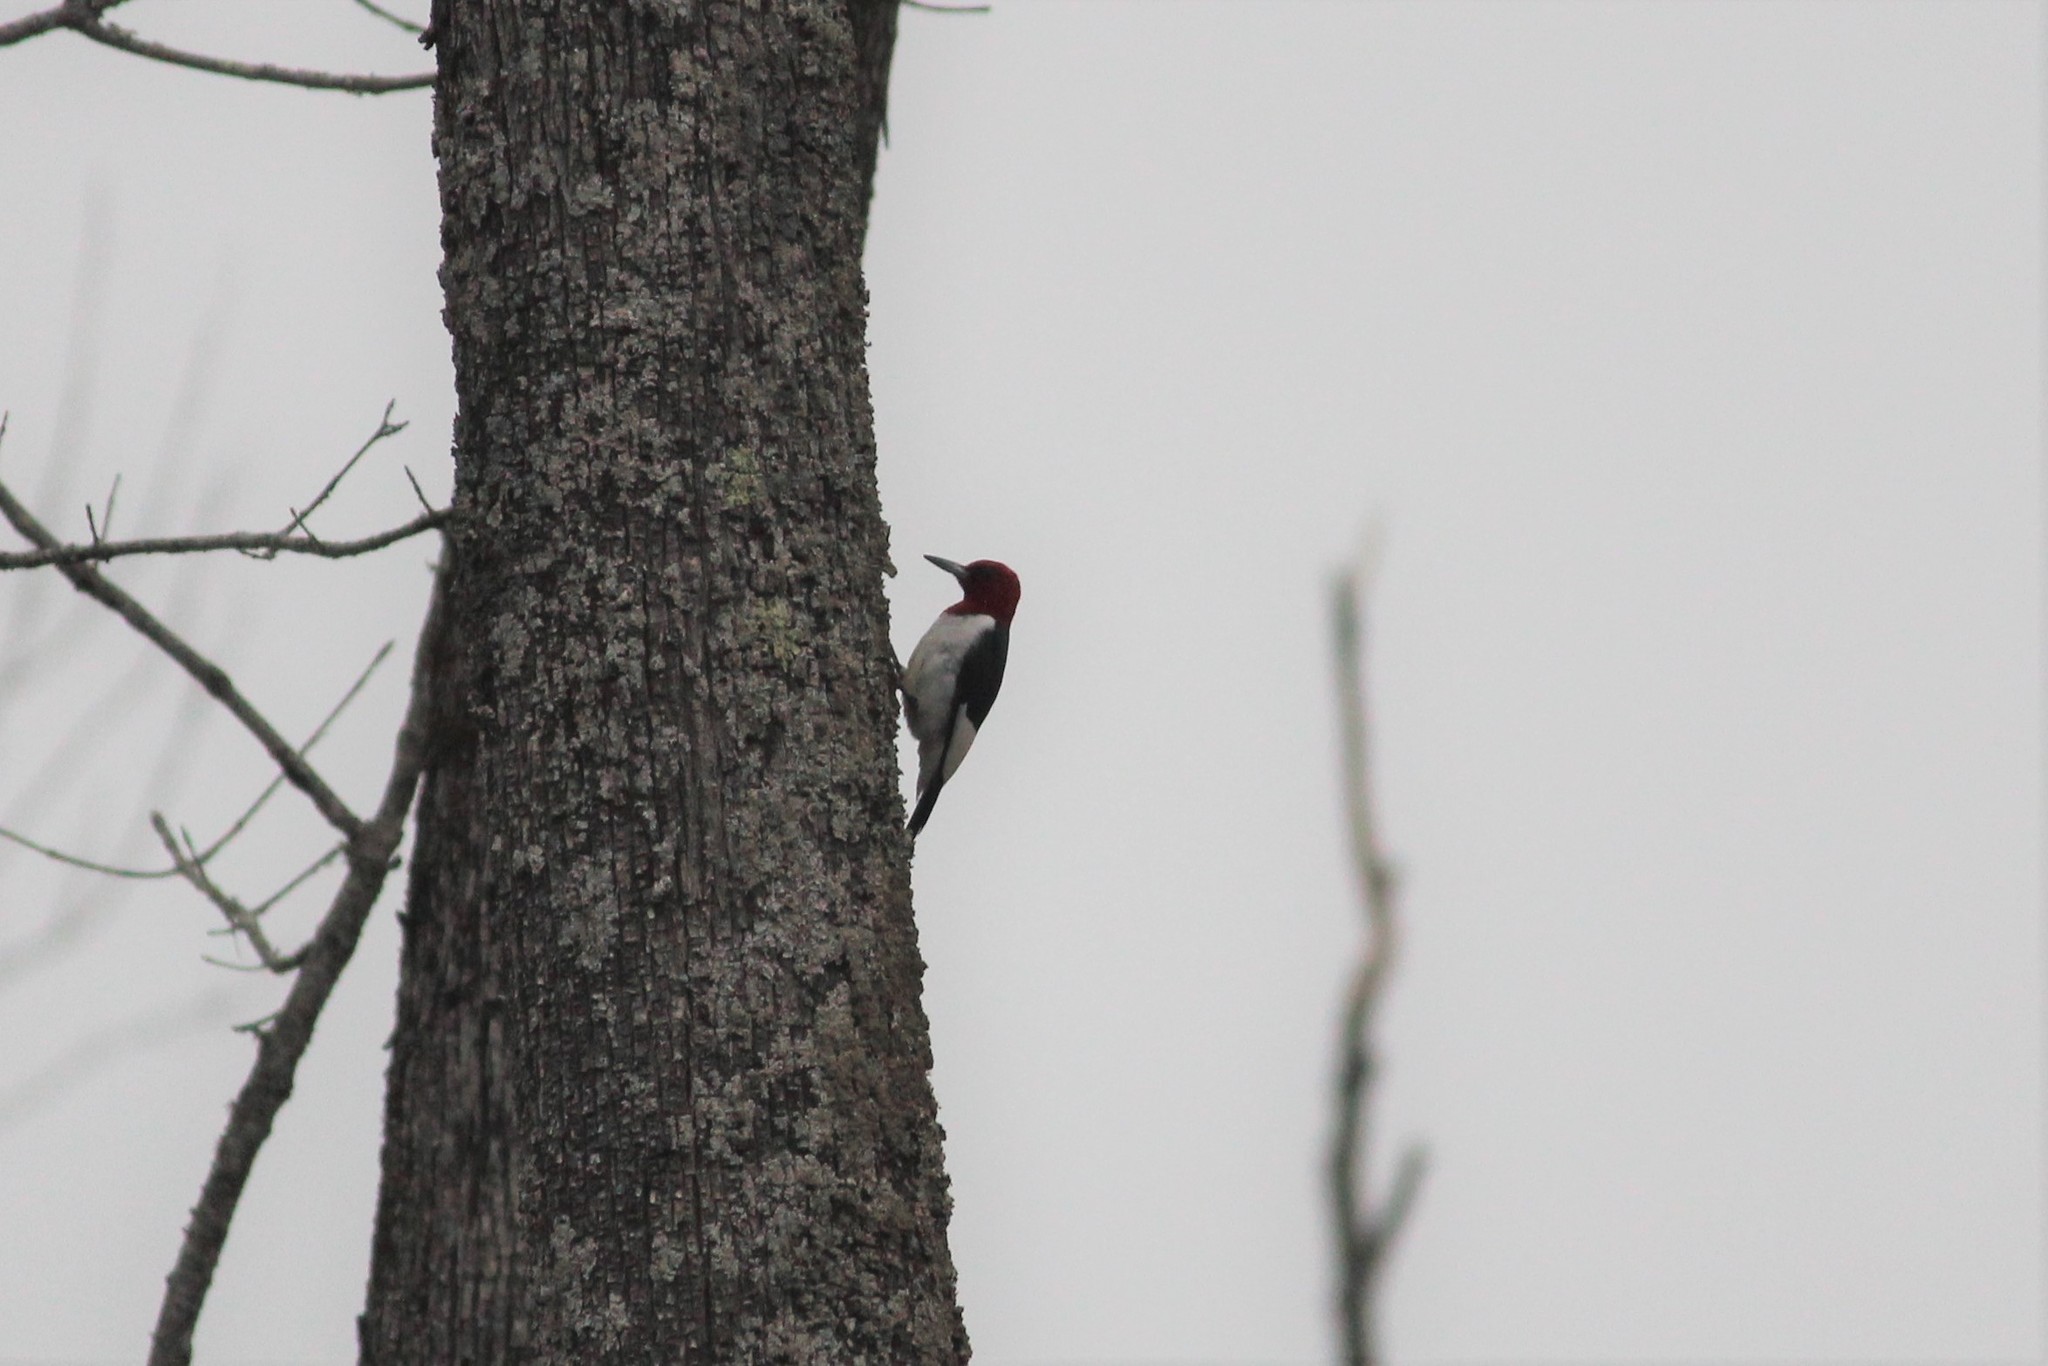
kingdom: Animalia
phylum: Chordata
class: Aves
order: Piciformes
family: Picidae
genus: Melanerpes
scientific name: Melanerpes erythrocephalus
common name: Red-headed woodpecker
